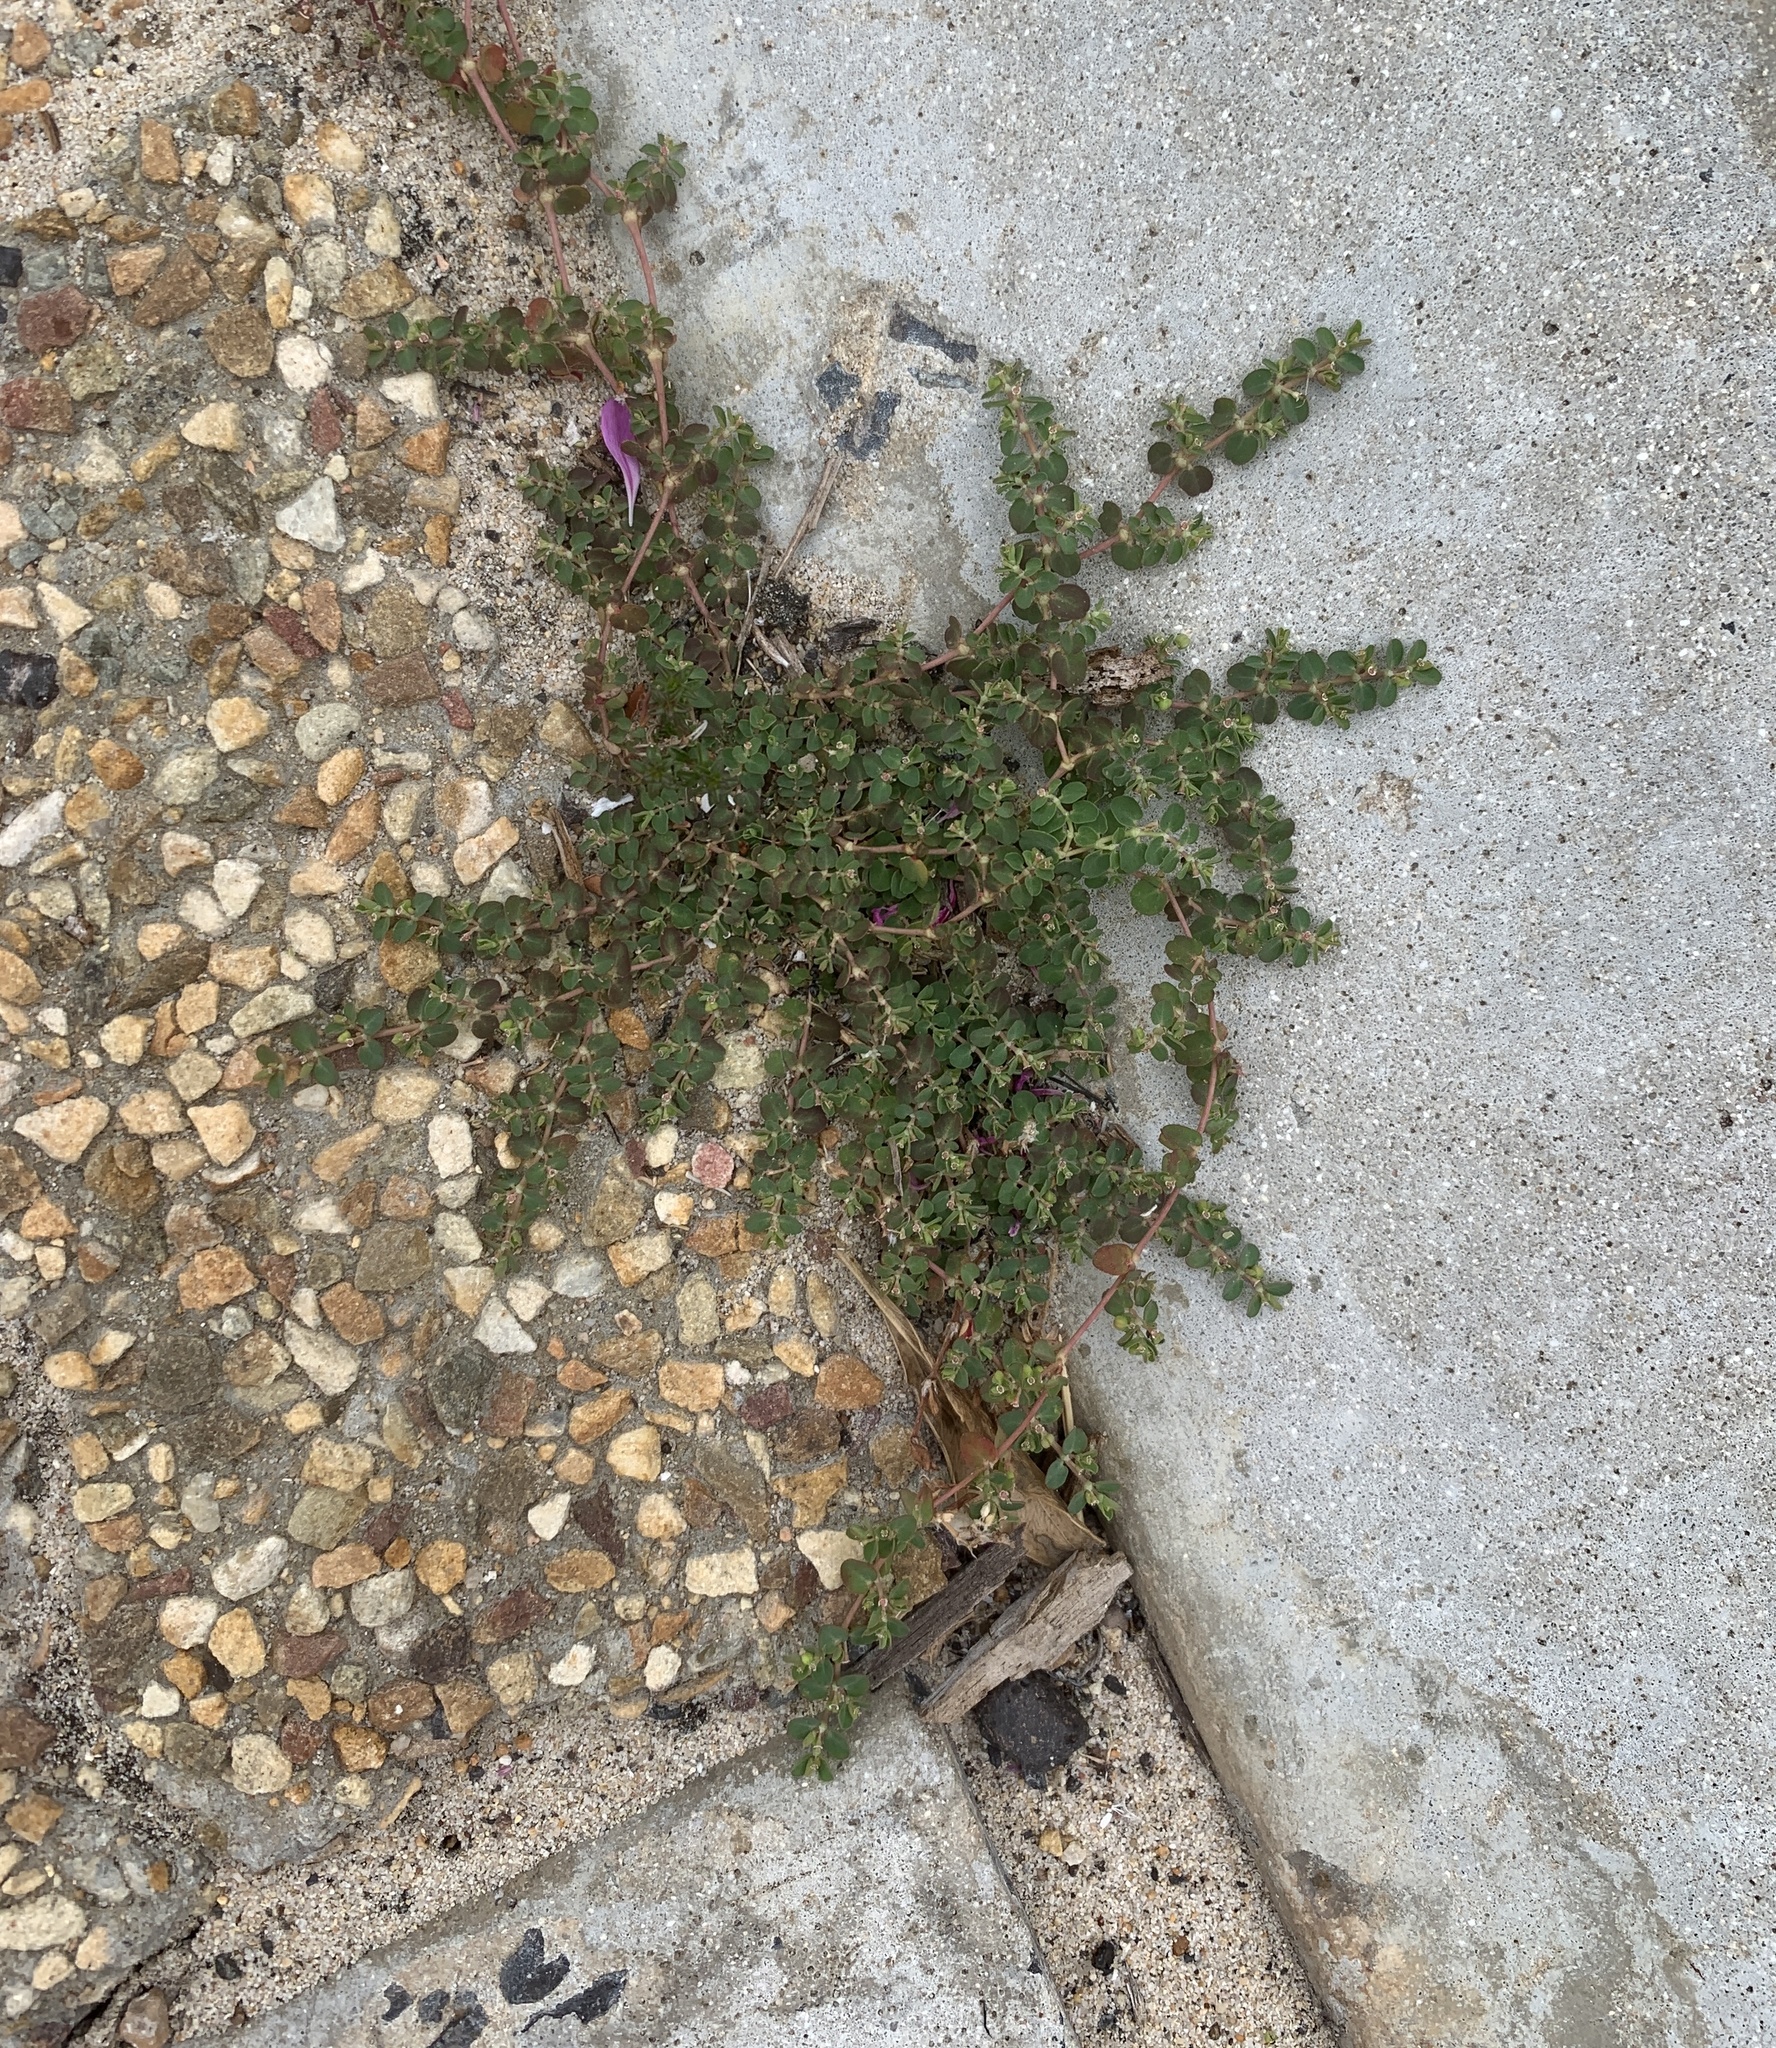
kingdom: Plantae
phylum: Tracheophyta
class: Magnoliopsida
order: Malpighiales
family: Euphorbiaceae
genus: Euphorbia
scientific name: Euphorbia serpens
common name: Matted sandmat
